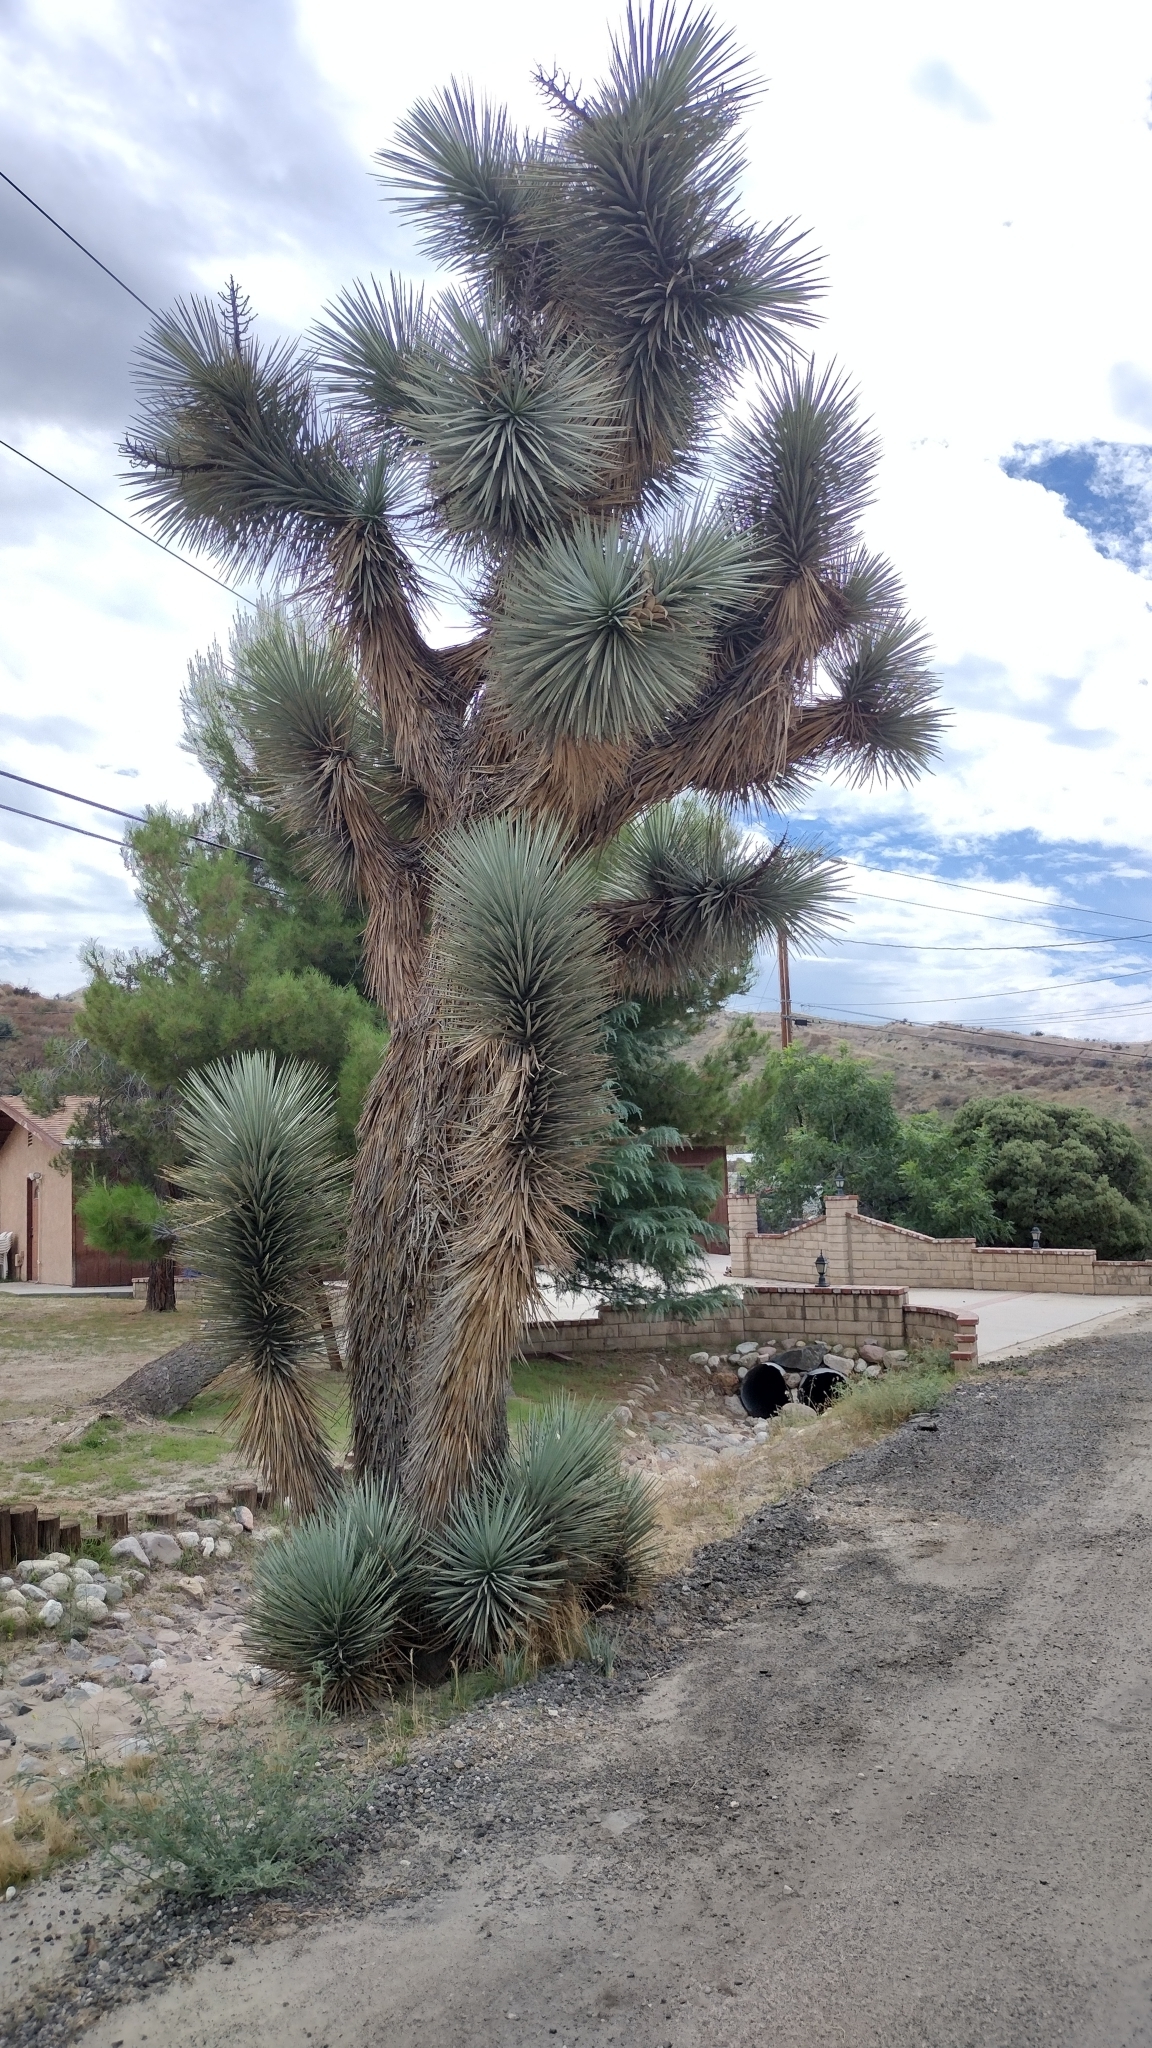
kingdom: Plantae
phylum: Tracheophyta
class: Liliopsida
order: Asparagales
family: Asparagaceae
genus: Yucca
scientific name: Yucca brevifolia
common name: Joshua tree
